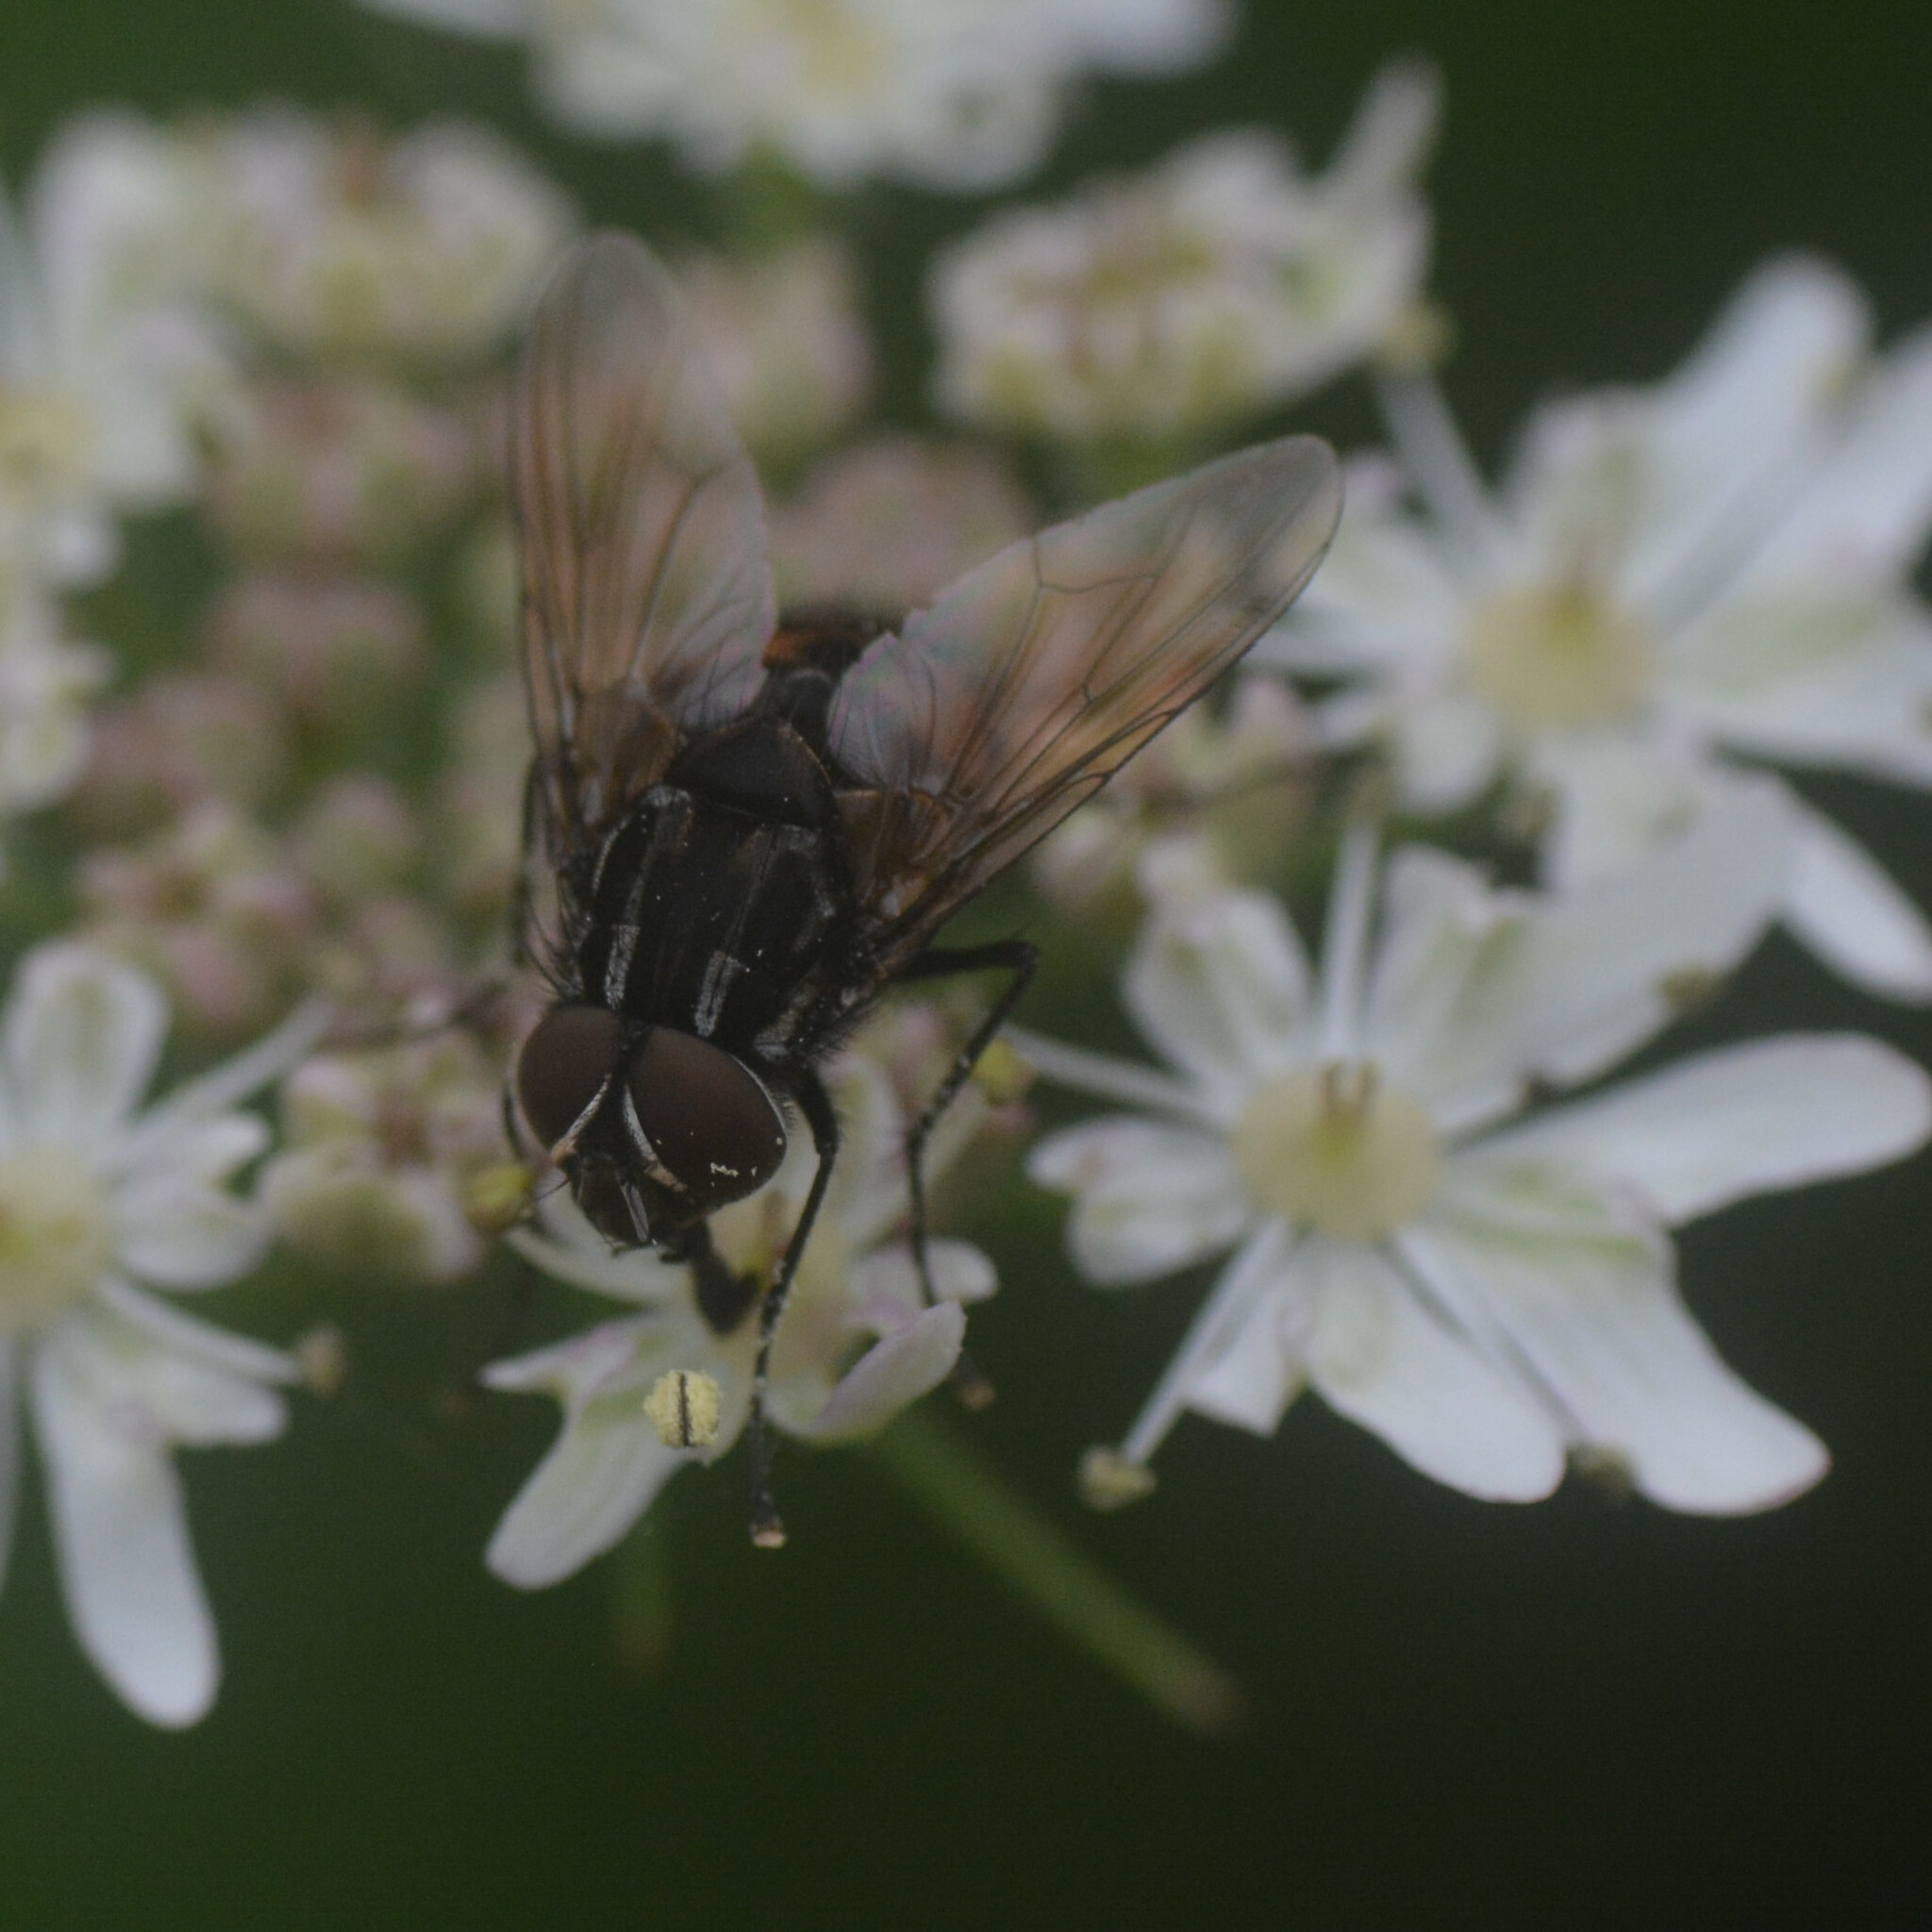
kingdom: Animalia
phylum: Arthropoda
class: Insecta
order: Diptera
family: Muscidae
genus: Graphomya
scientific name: Graphomya maculata
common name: Muscid fly
